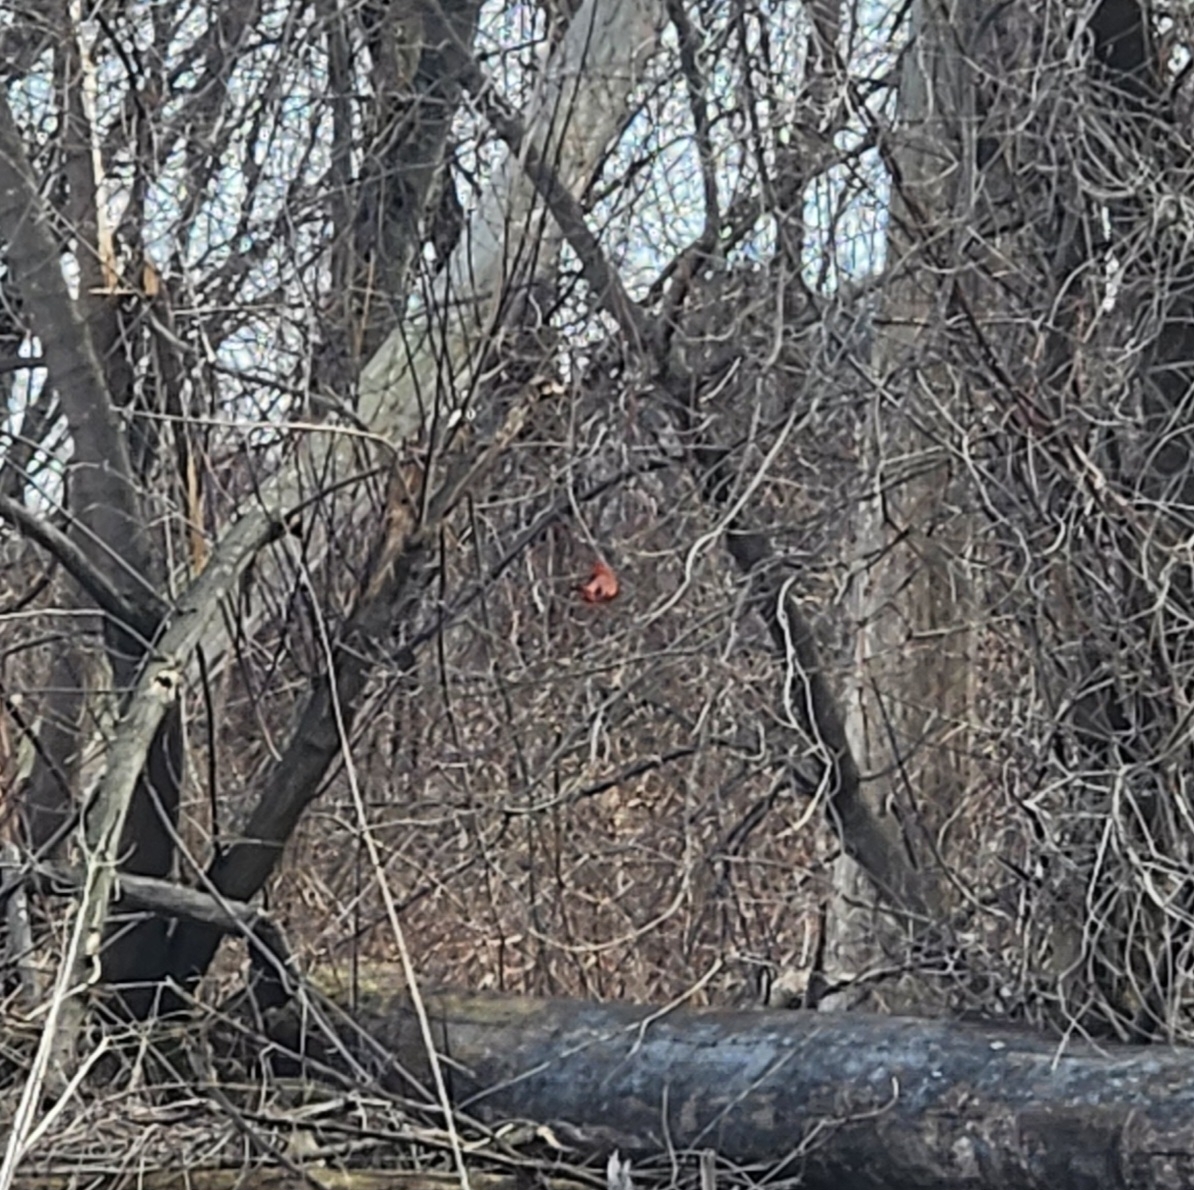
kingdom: Animalia
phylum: Chordata
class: Aves
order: Passeriformes
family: Cardinalidae
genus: Cardinalis
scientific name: Cardinalis cardinalis
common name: Northern cardinal
